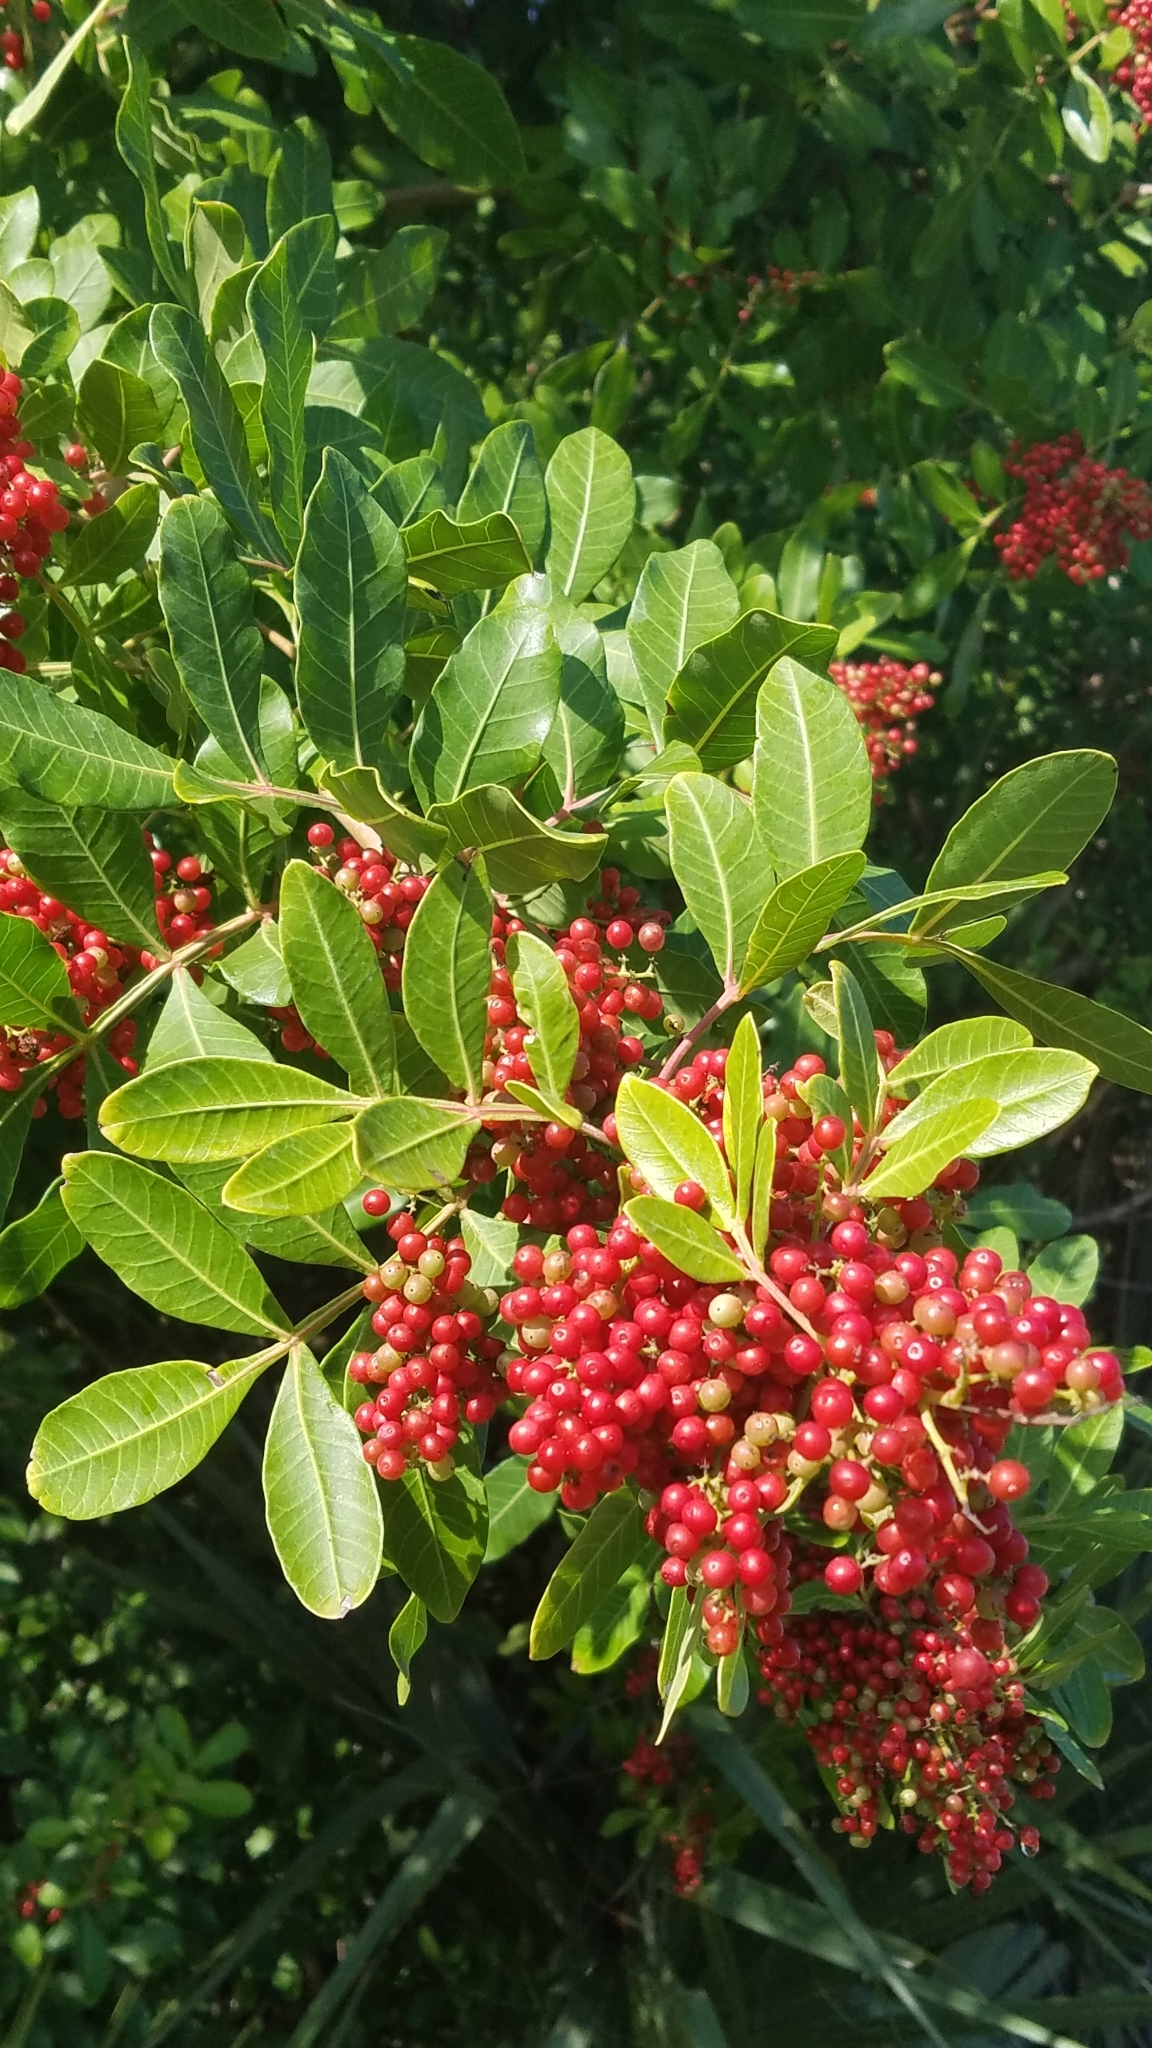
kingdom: Plantae
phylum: Tracheophyta
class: Magnoliopsida
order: Sapindales
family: Anacardiaceae
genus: Schinus
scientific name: Schinus terebinthifolia
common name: Brazilian peppertree
